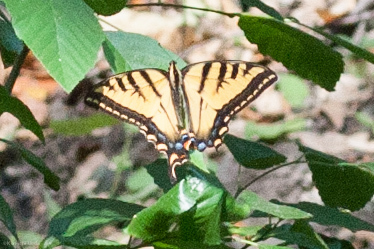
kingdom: Animalia
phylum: Arthropoda
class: Insecta
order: Lepidoptera
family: Papilionidae
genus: Papilio
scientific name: Papilio rutulus
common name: Western tiger swallowtail
